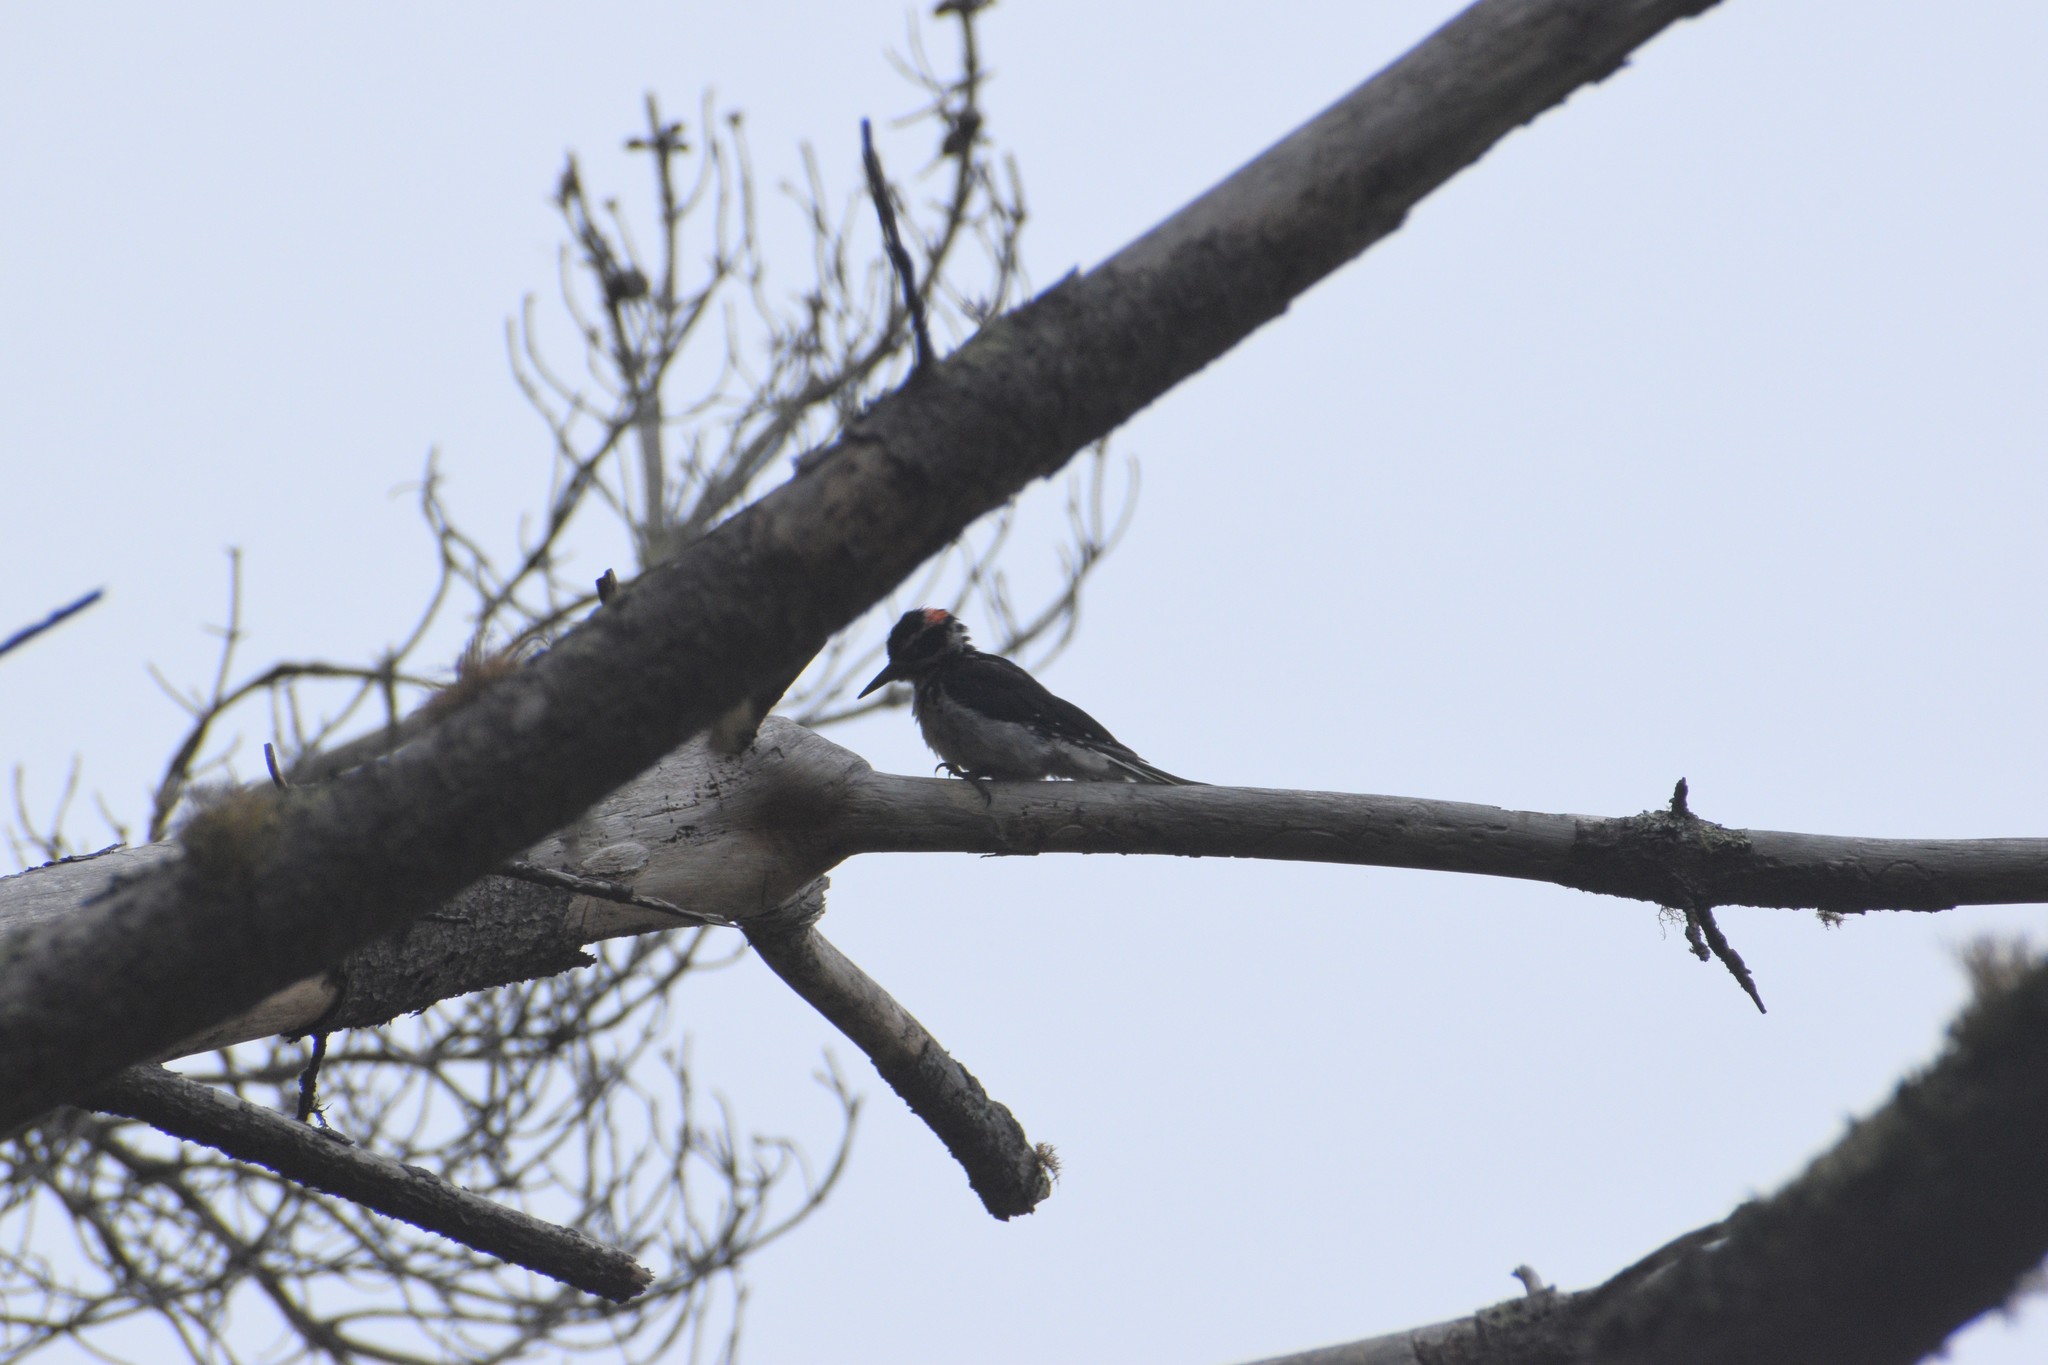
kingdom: Animalia
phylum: Chordata
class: Aves
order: Piciformes
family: Picidae
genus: Leuconotopicus
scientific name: Leuconotopicus villosus
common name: Hairy woodpecker
